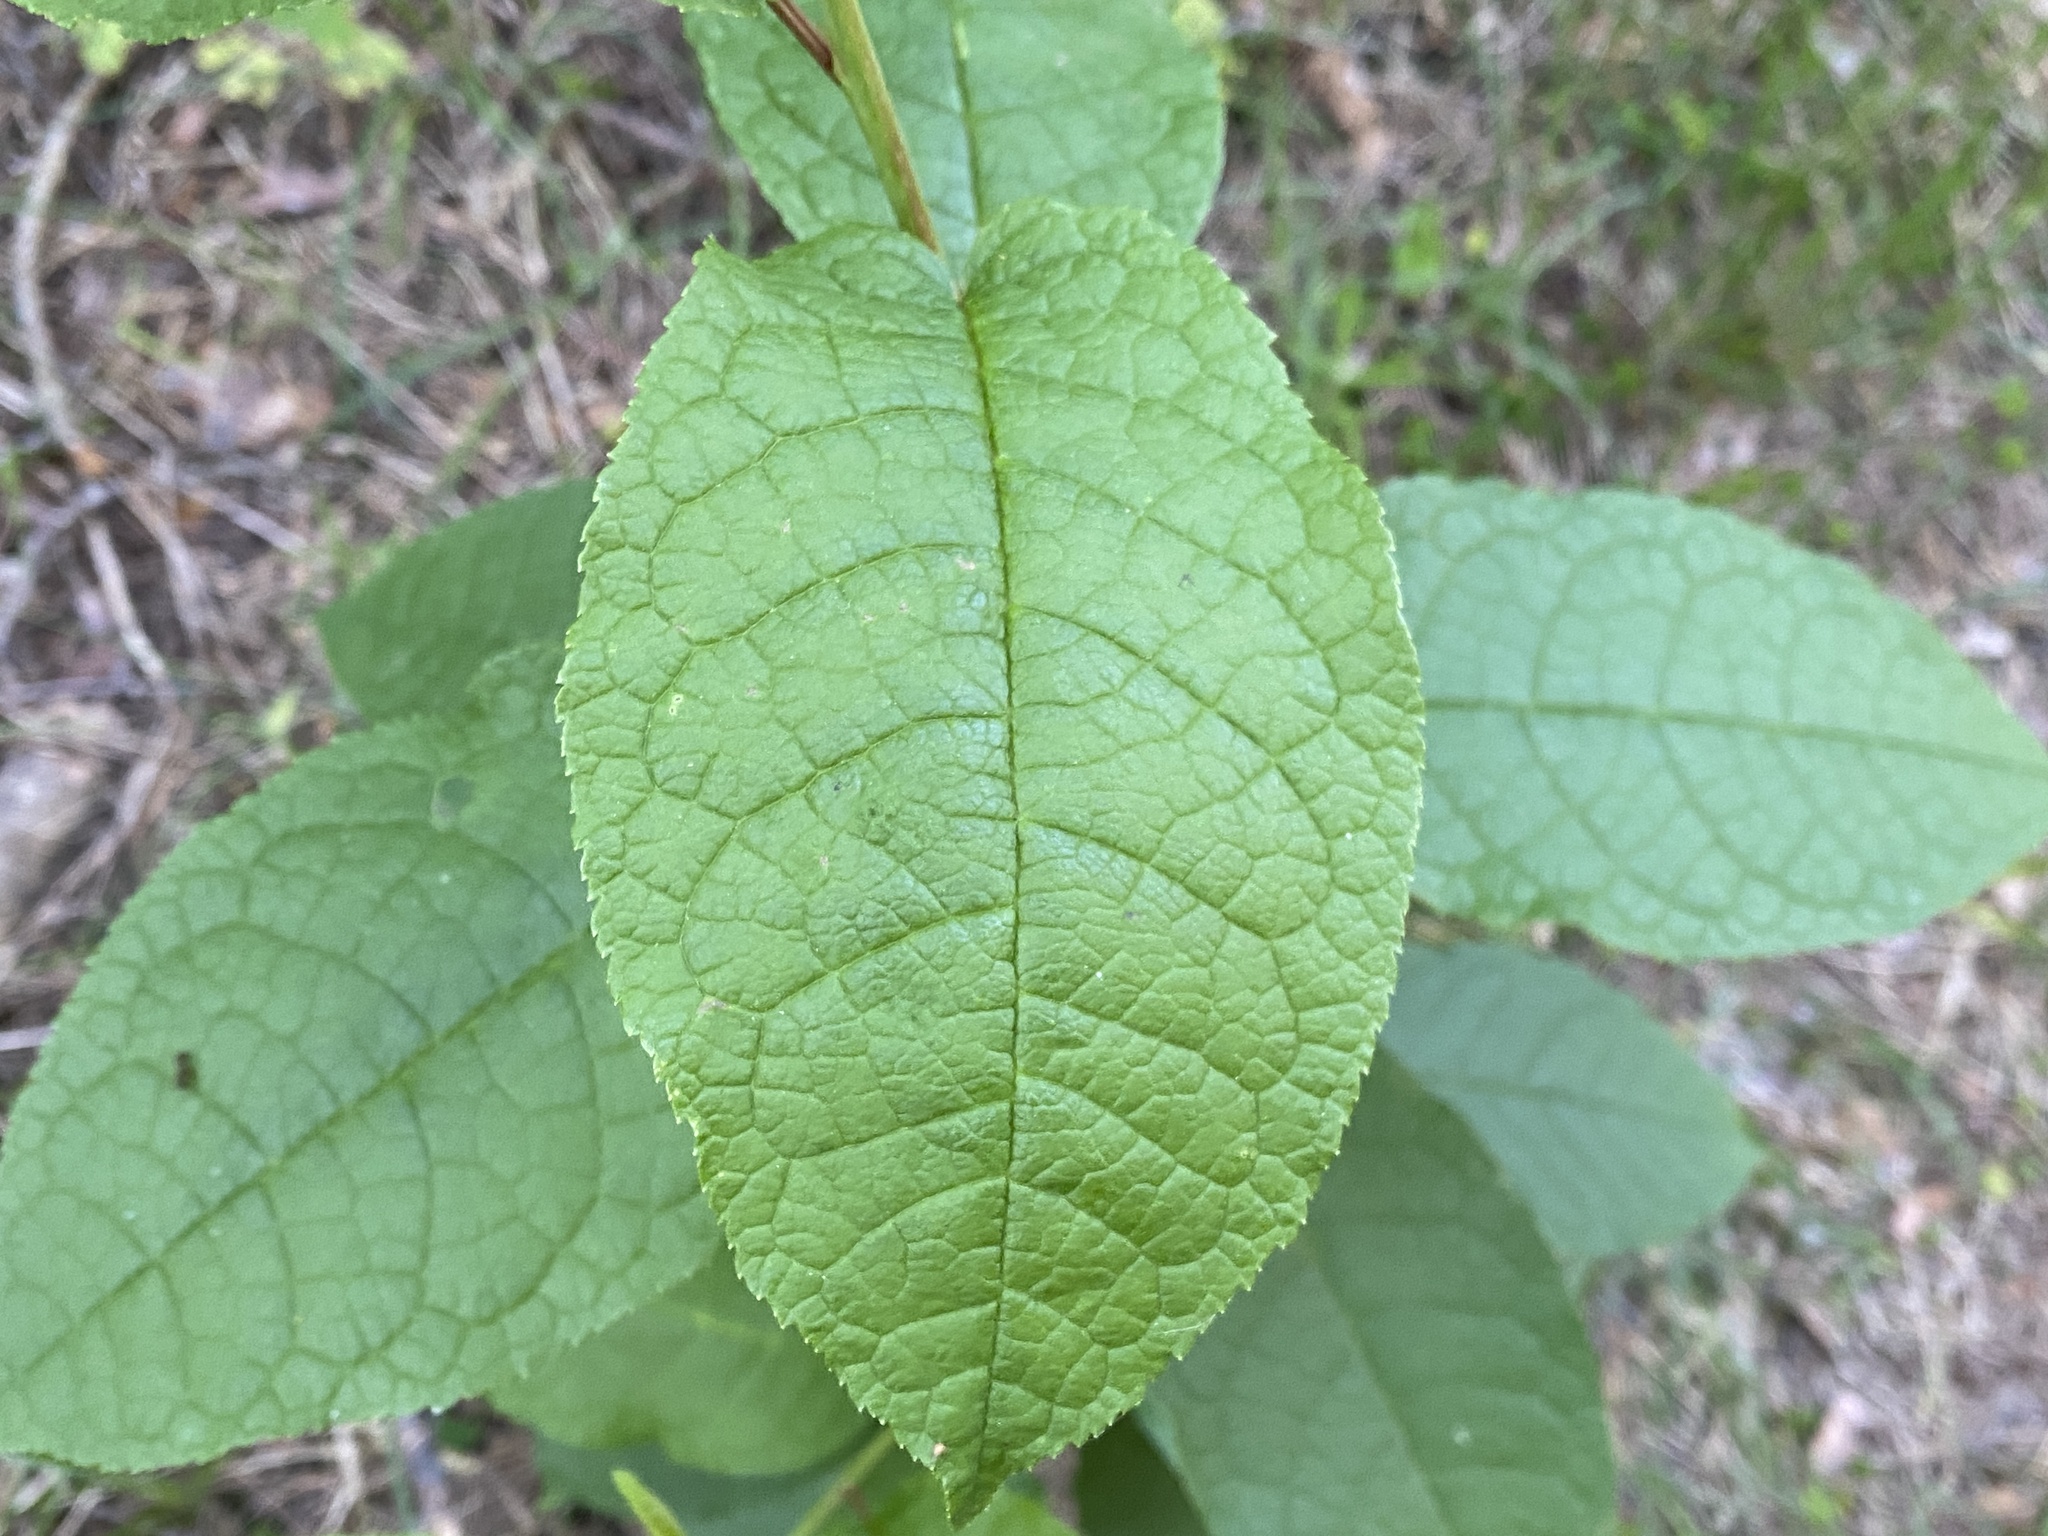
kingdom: Plantae
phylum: Tracheophyta
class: Magnoliopsida
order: Rosales
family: Rosaceae
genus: Prunus
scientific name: Prunus padus
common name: Bird cherry
